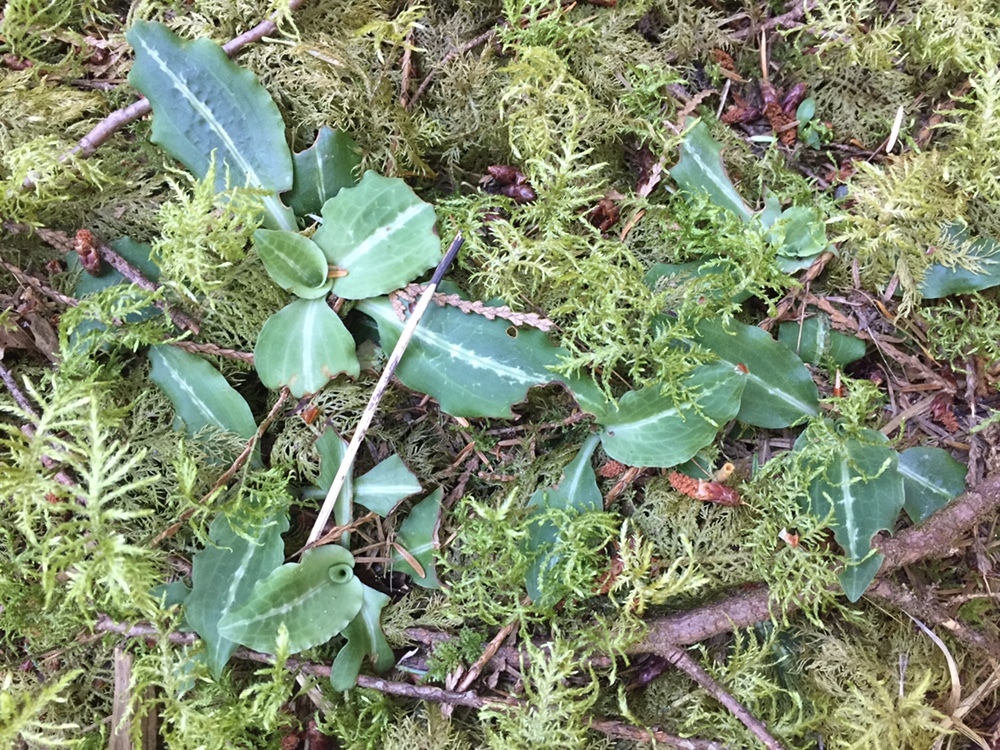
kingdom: Plantae
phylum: Tracheophyta
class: Liliopsida
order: Asparagales
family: Orchidaceae
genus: Goodyera
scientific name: Goodyera oblongifolia
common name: Giant rattlesnake-plantain
